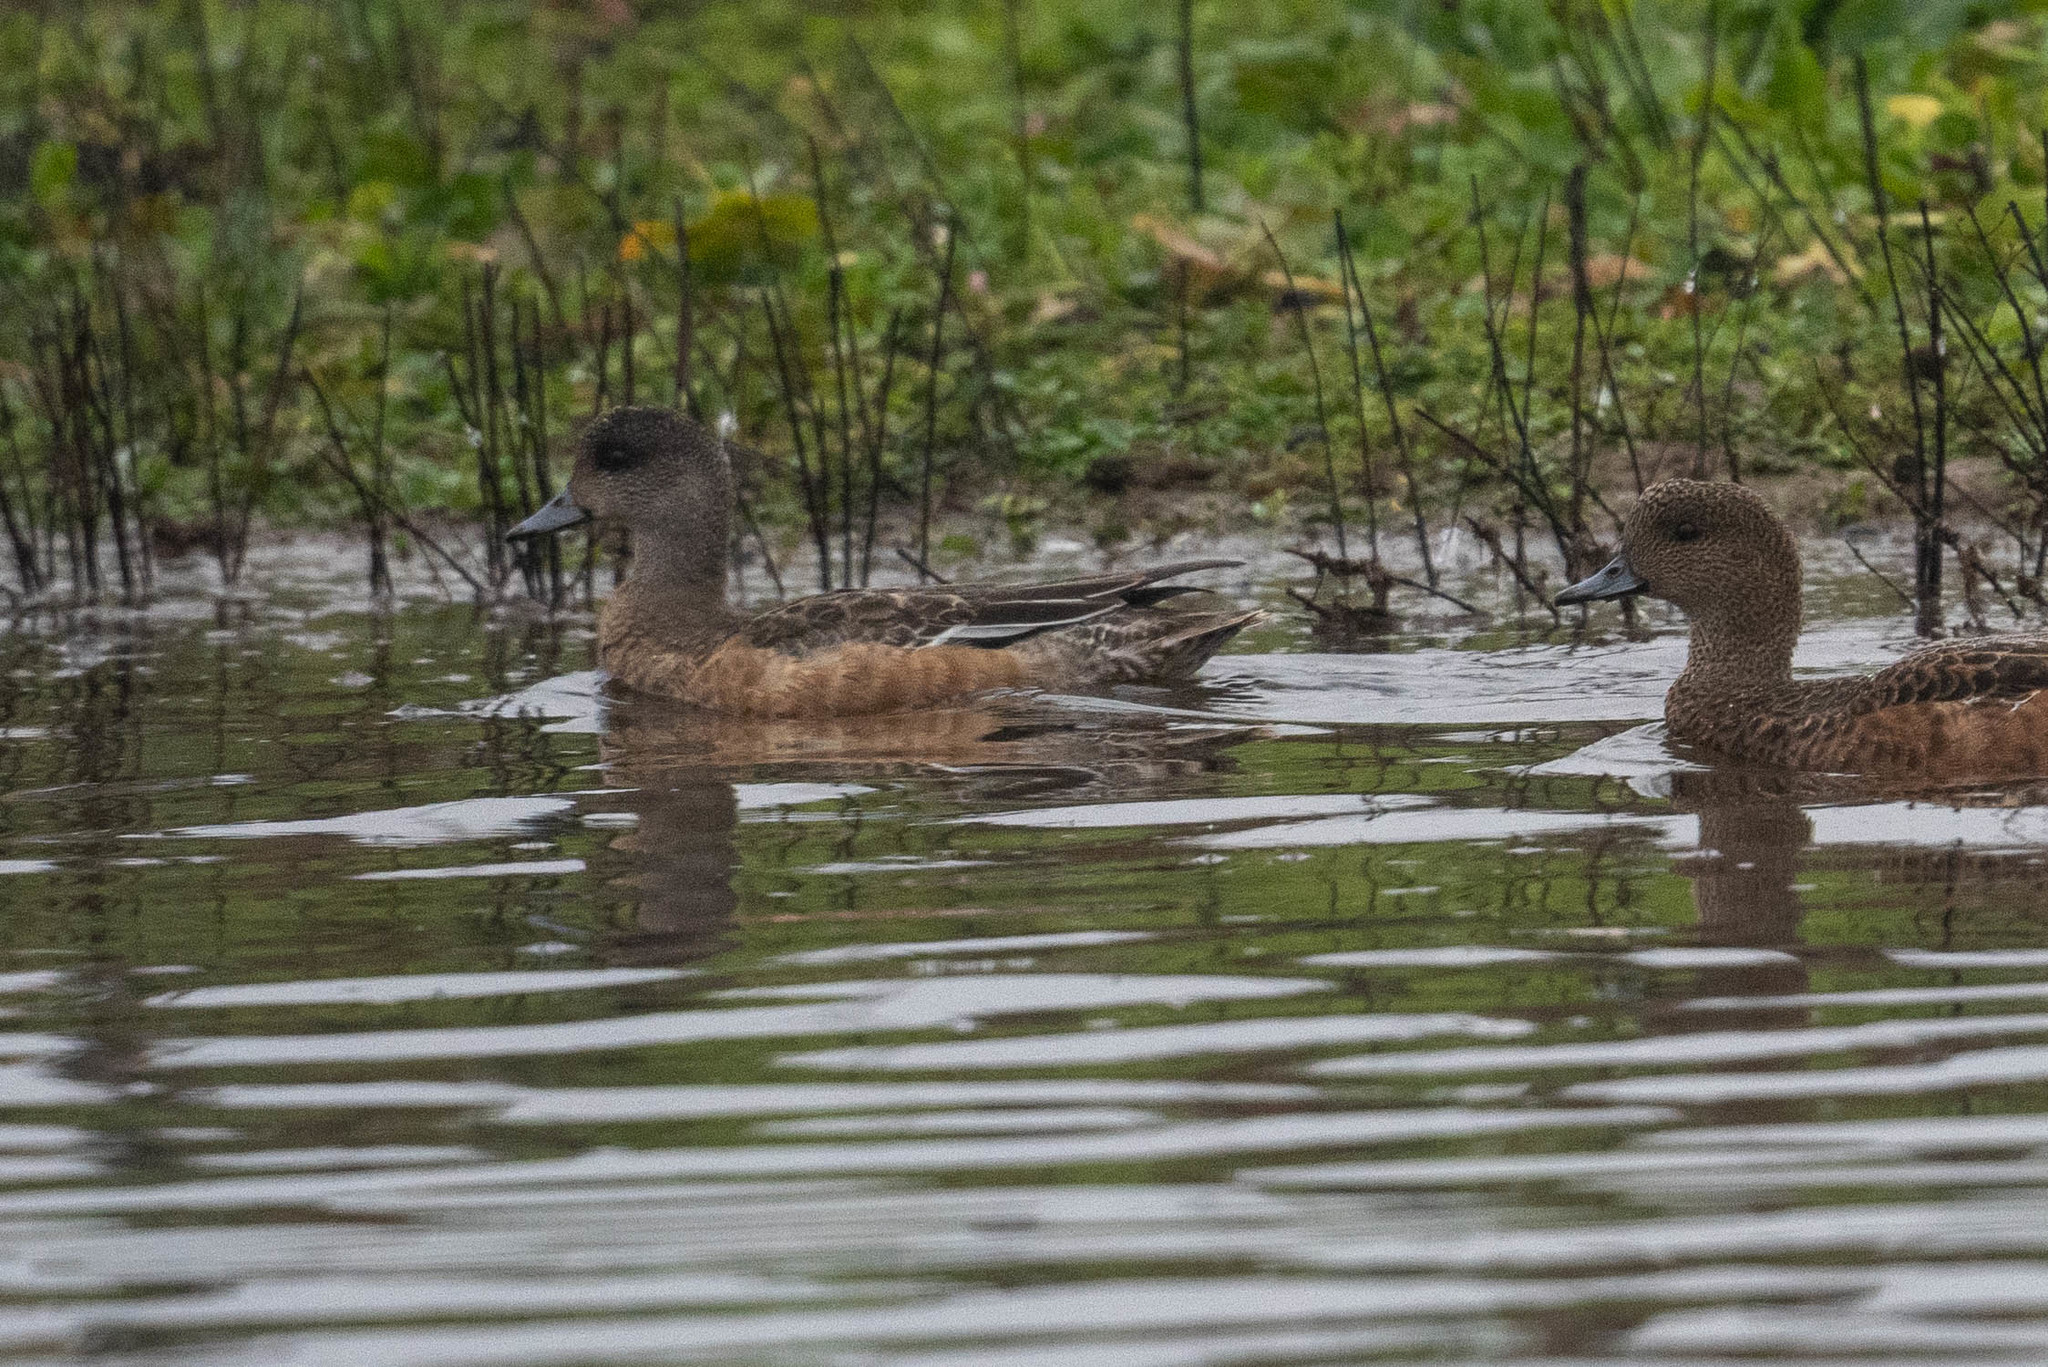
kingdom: Animalia
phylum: Chordata
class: Aves
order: Anseriformes
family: Anatidae
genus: Mareca
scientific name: Mareca americana
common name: American wigeon
